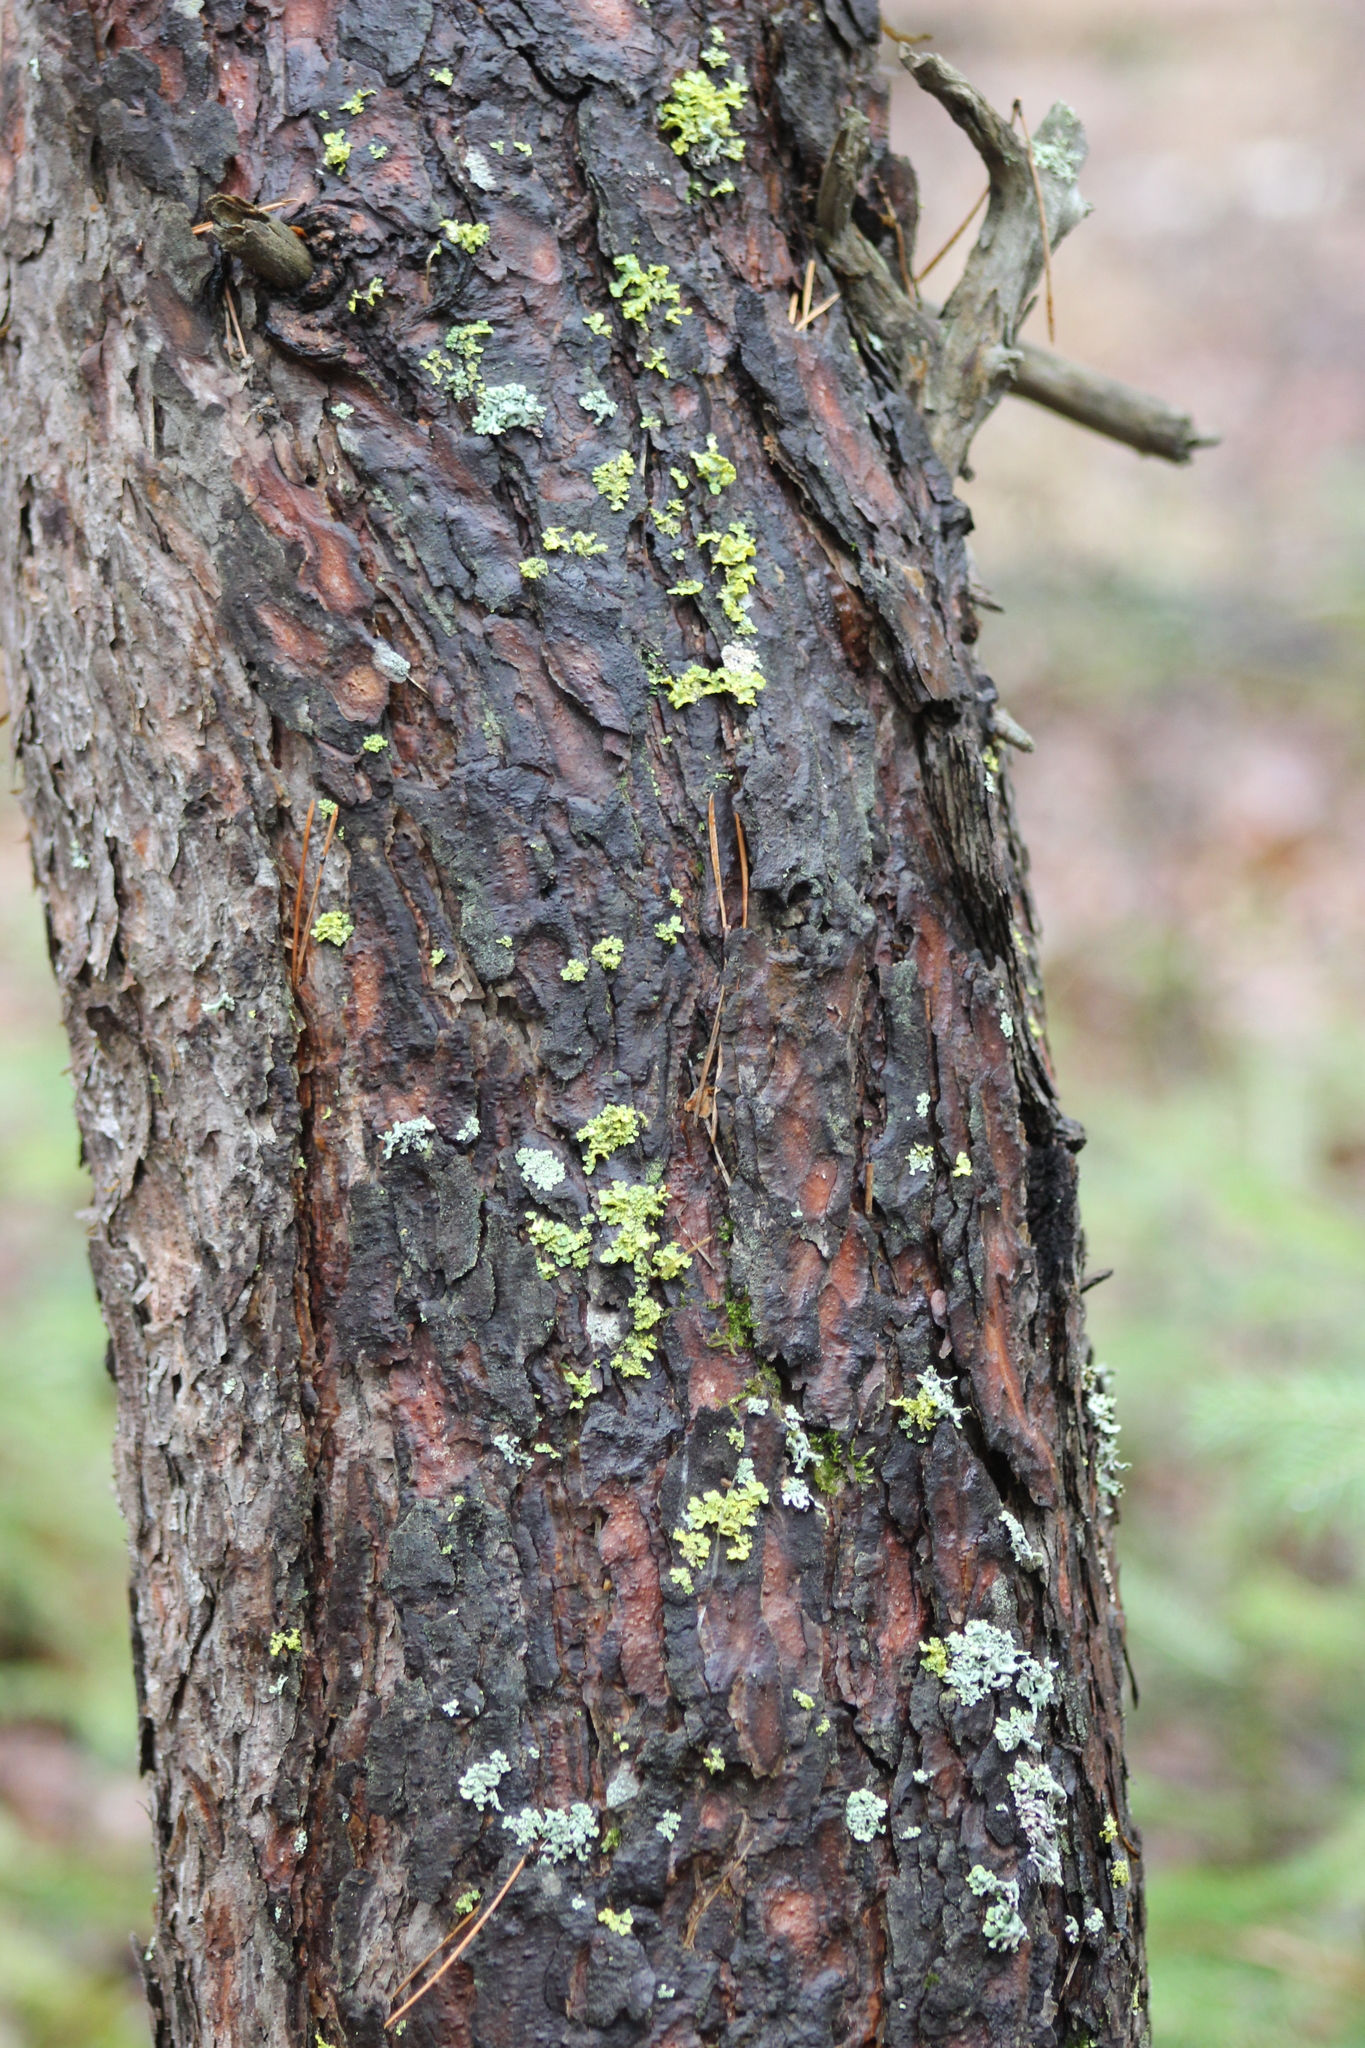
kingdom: Fungi
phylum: Ascomycota
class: Lecanoromycetes
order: Lecanorales
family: Parmeliaceae
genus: Vulpicida
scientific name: Vulpicida pinastri
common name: Powdered sunshine lichen
